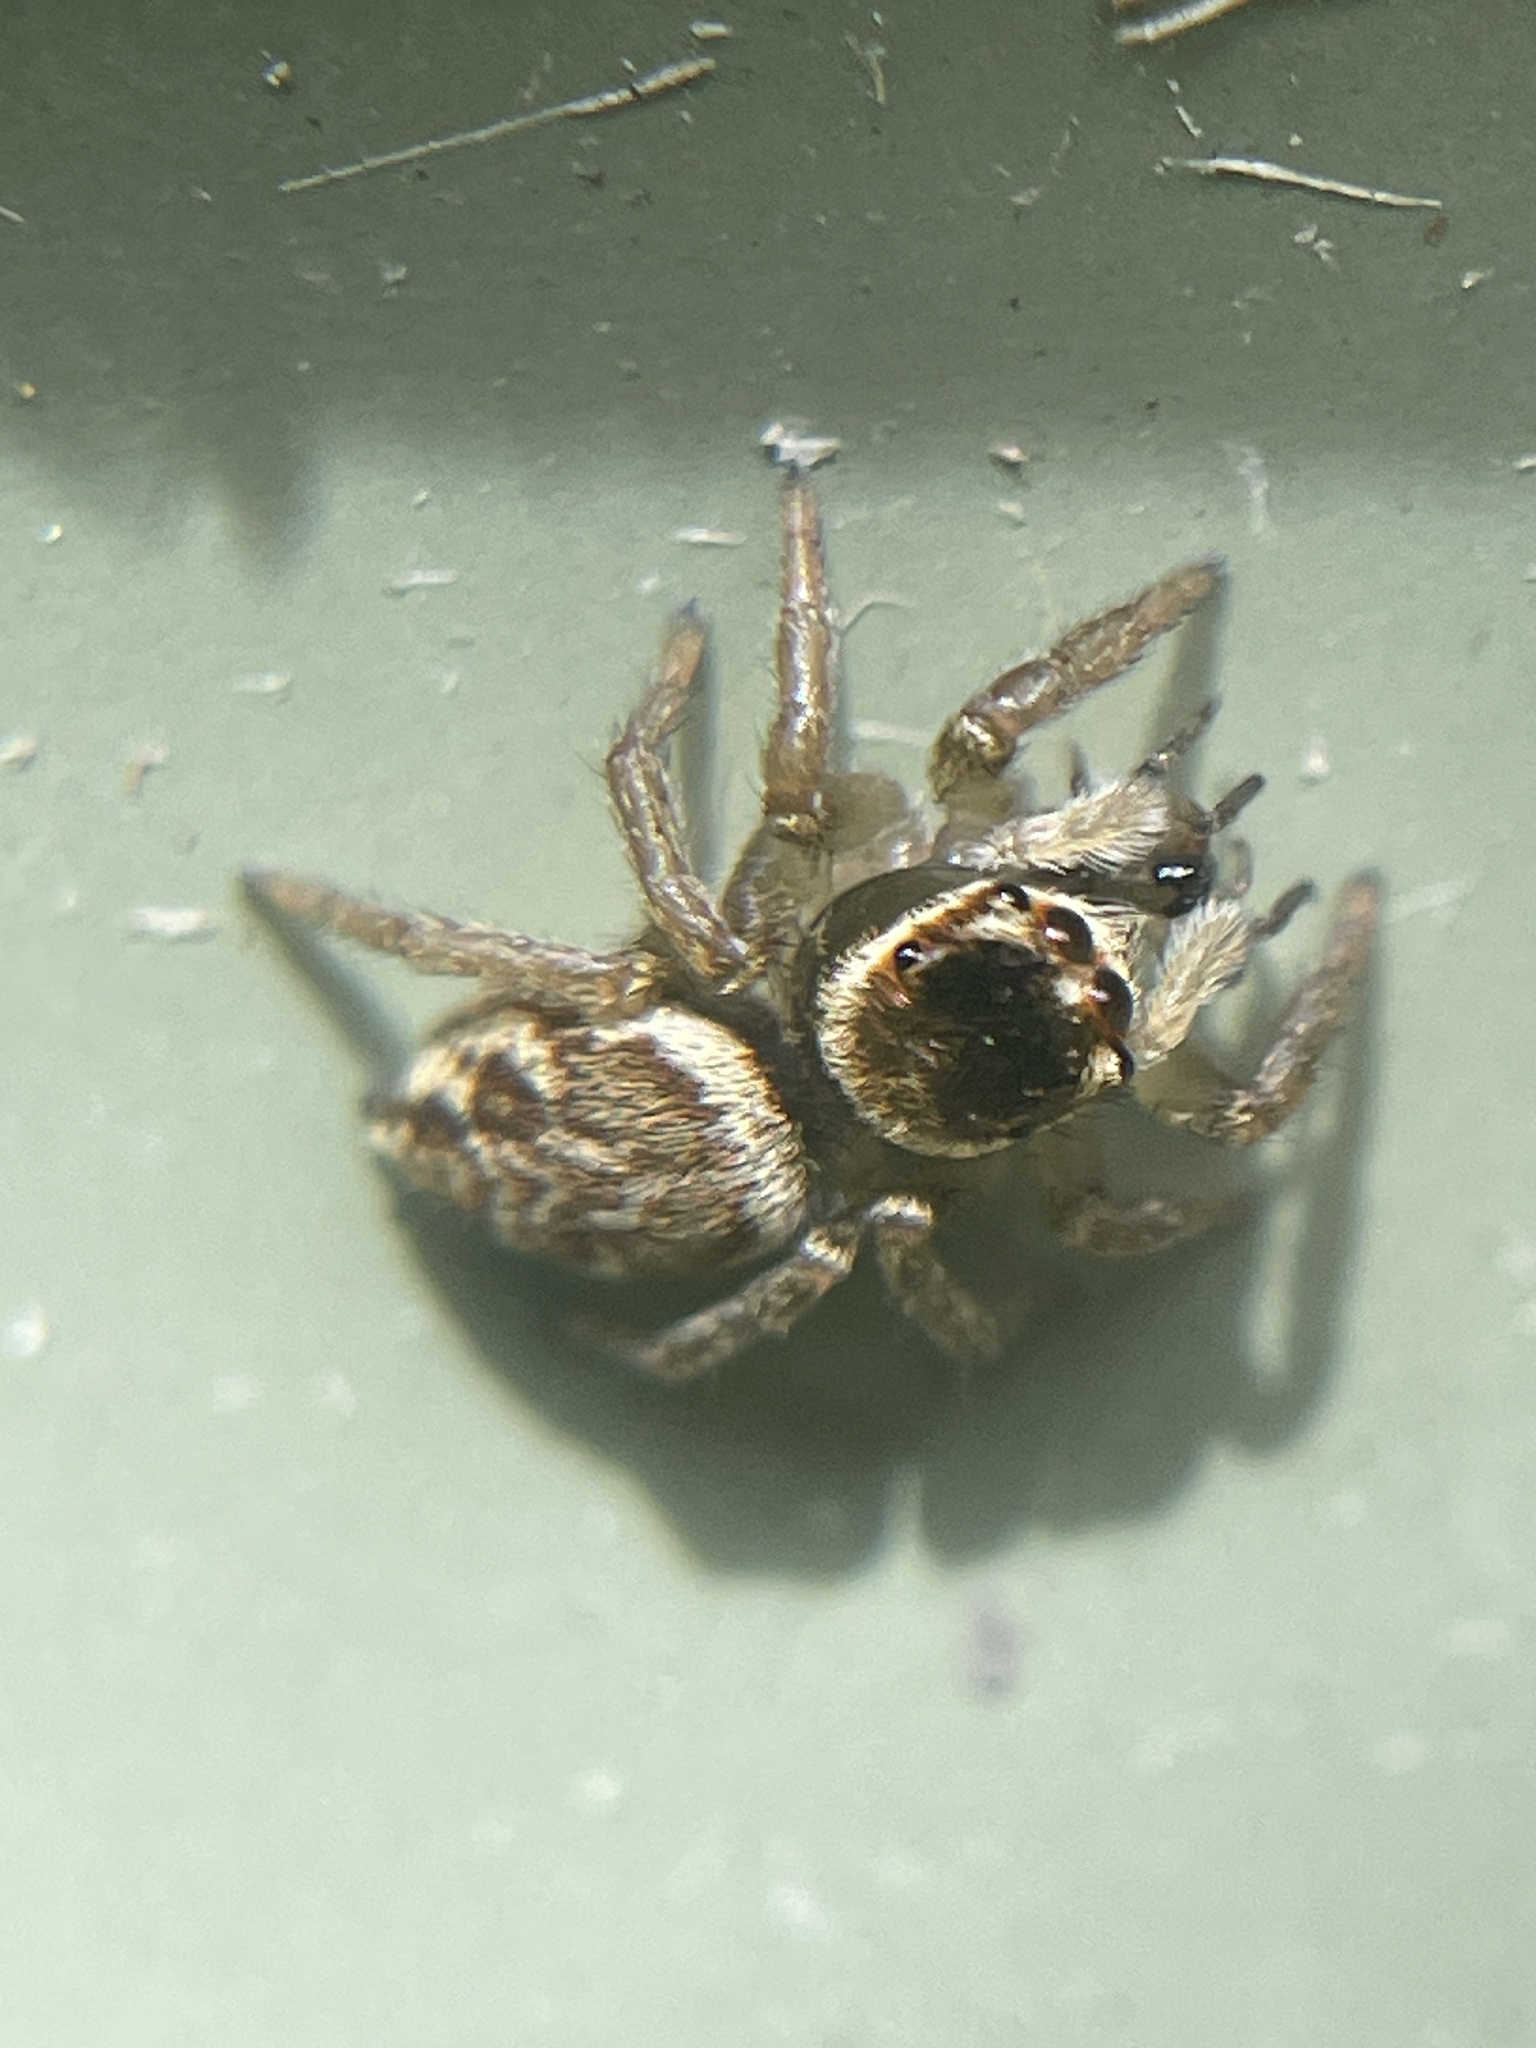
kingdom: Animalia
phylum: Arthropoda
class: Arachnida
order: Araneae
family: Salticidae
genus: Maratus
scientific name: Maratus griseus
